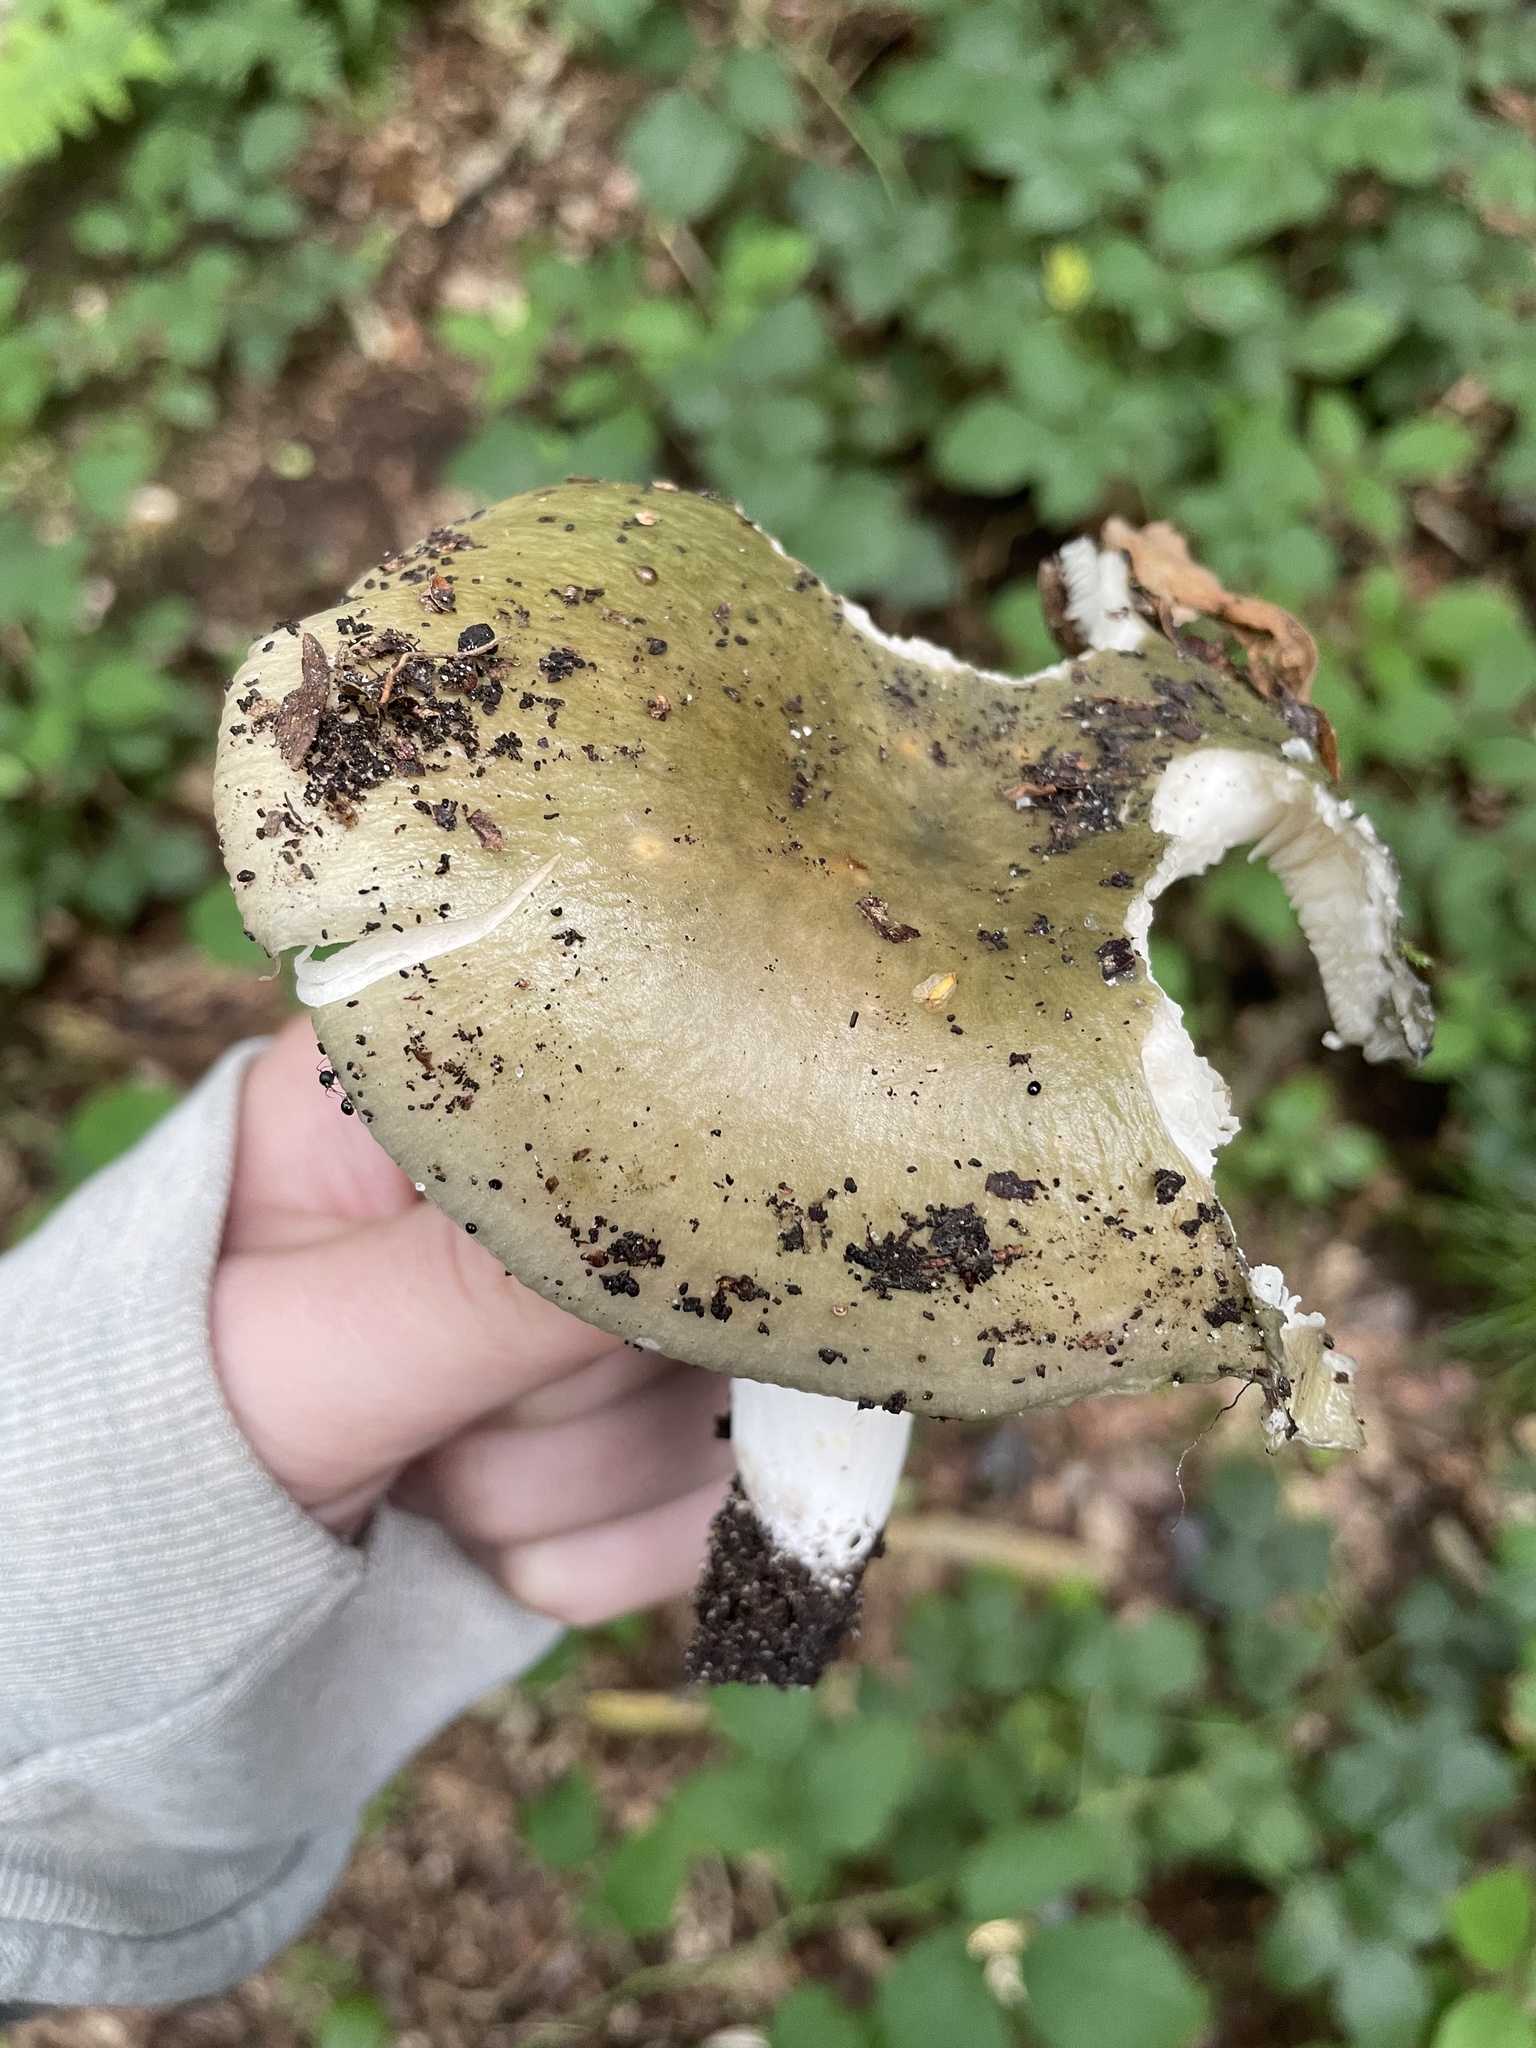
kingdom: Fungi
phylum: Basidiomycota
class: Agaricomycetes
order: Russulales
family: Russulaceae
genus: Russula
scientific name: Russula cyanoxantha
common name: Charcoal burner
